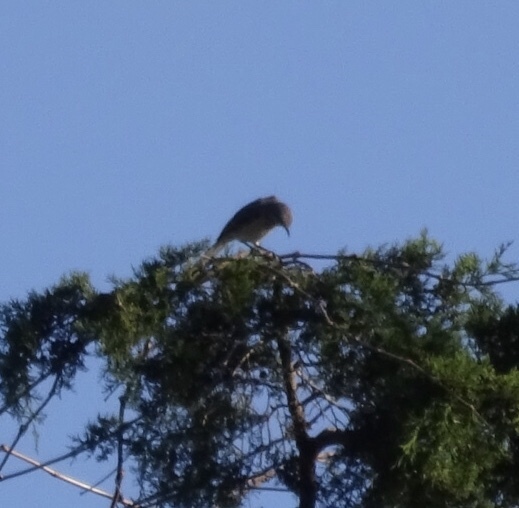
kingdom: Animalia
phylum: Chordata
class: Aves
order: Passeriformes
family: Mimidae
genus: Mimus
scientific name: Mimus polyglottos
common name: Northern mockingbird
